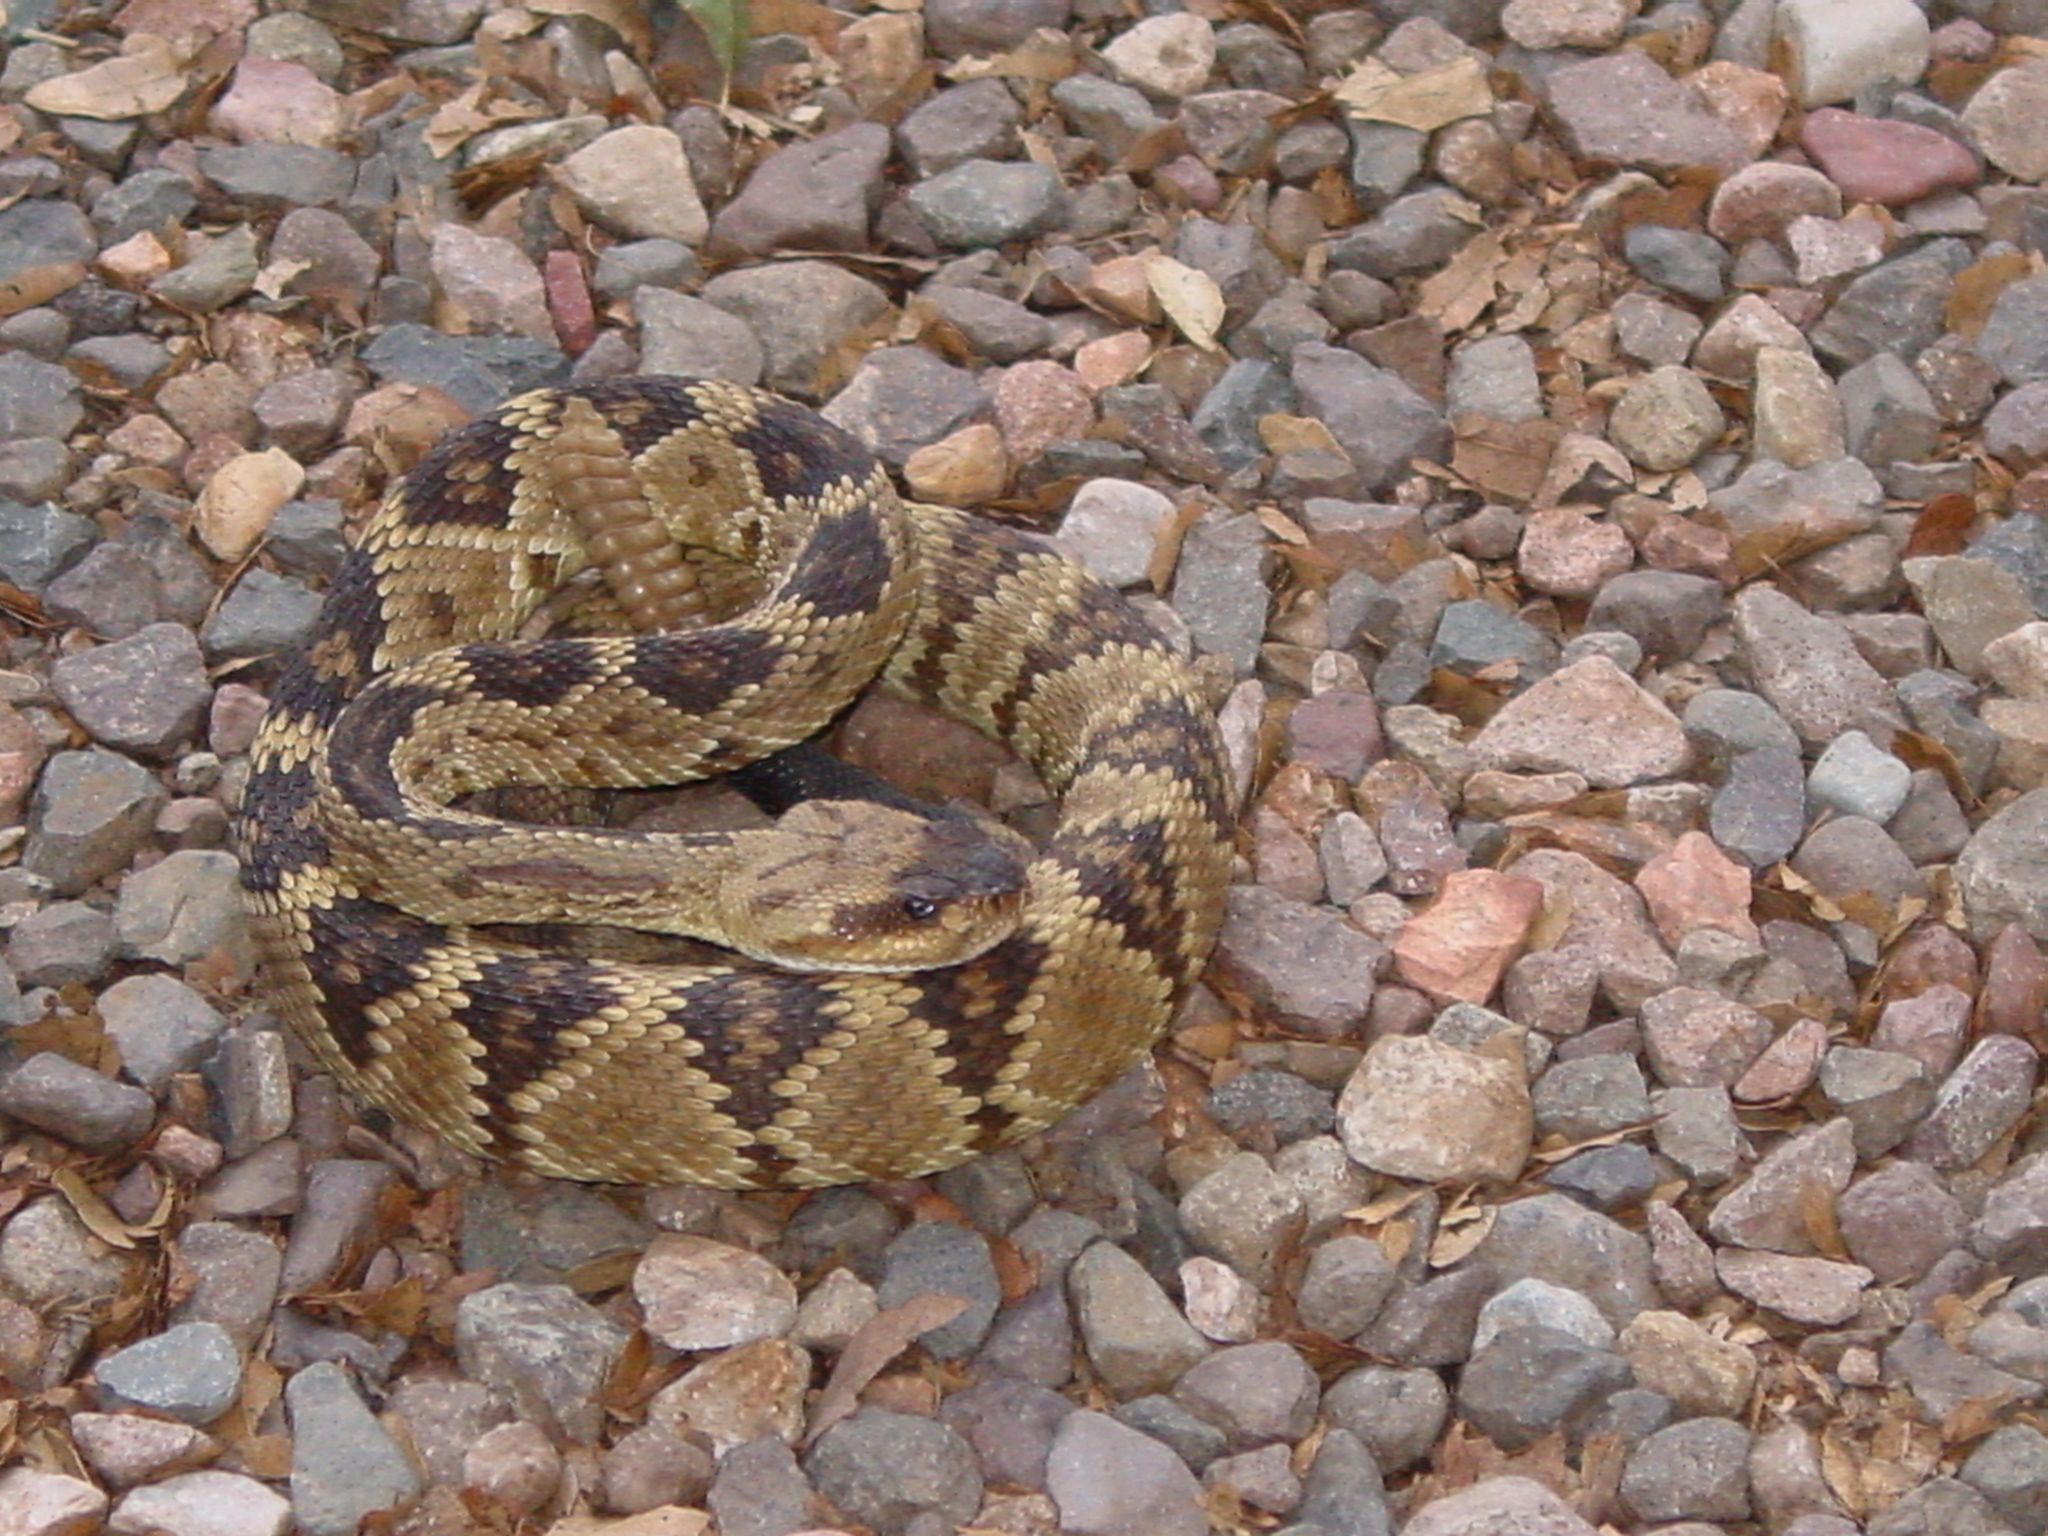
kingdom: Animalia
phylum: Chordata
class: Squamata
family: Viperidae
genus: Crotalus
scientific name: Crotalus molossus
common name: Black tailed rattlesnake
